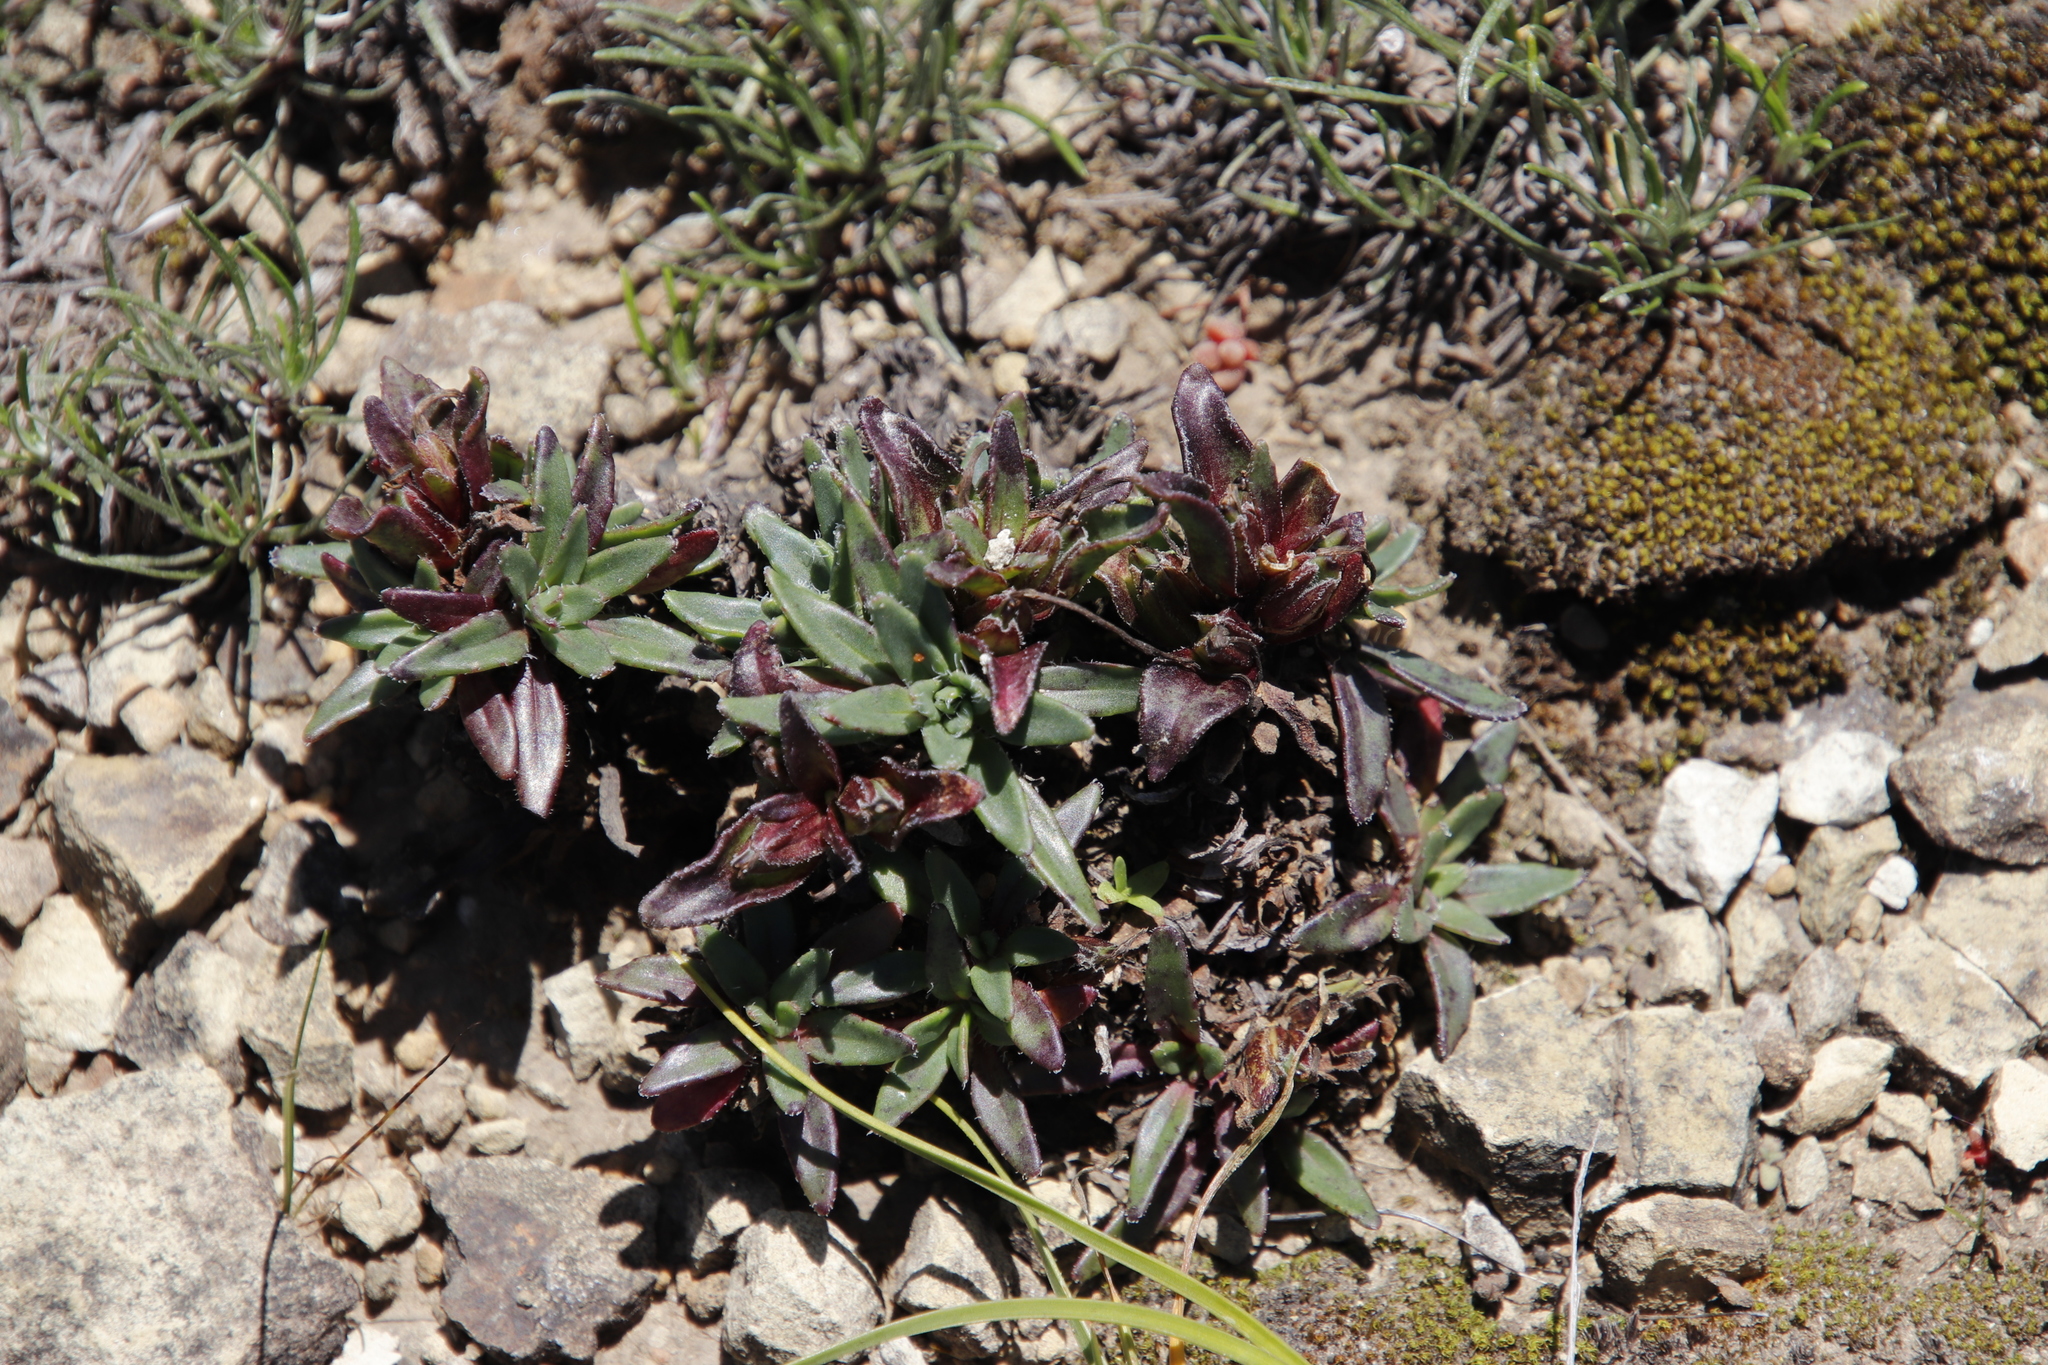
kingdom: Plantae
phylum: Tracheophyta
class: Magnoliopsida
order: Lamiales
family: Scrophulariaceae
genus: Zaluzianskya
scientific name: Zaluzianskya pulvinata
